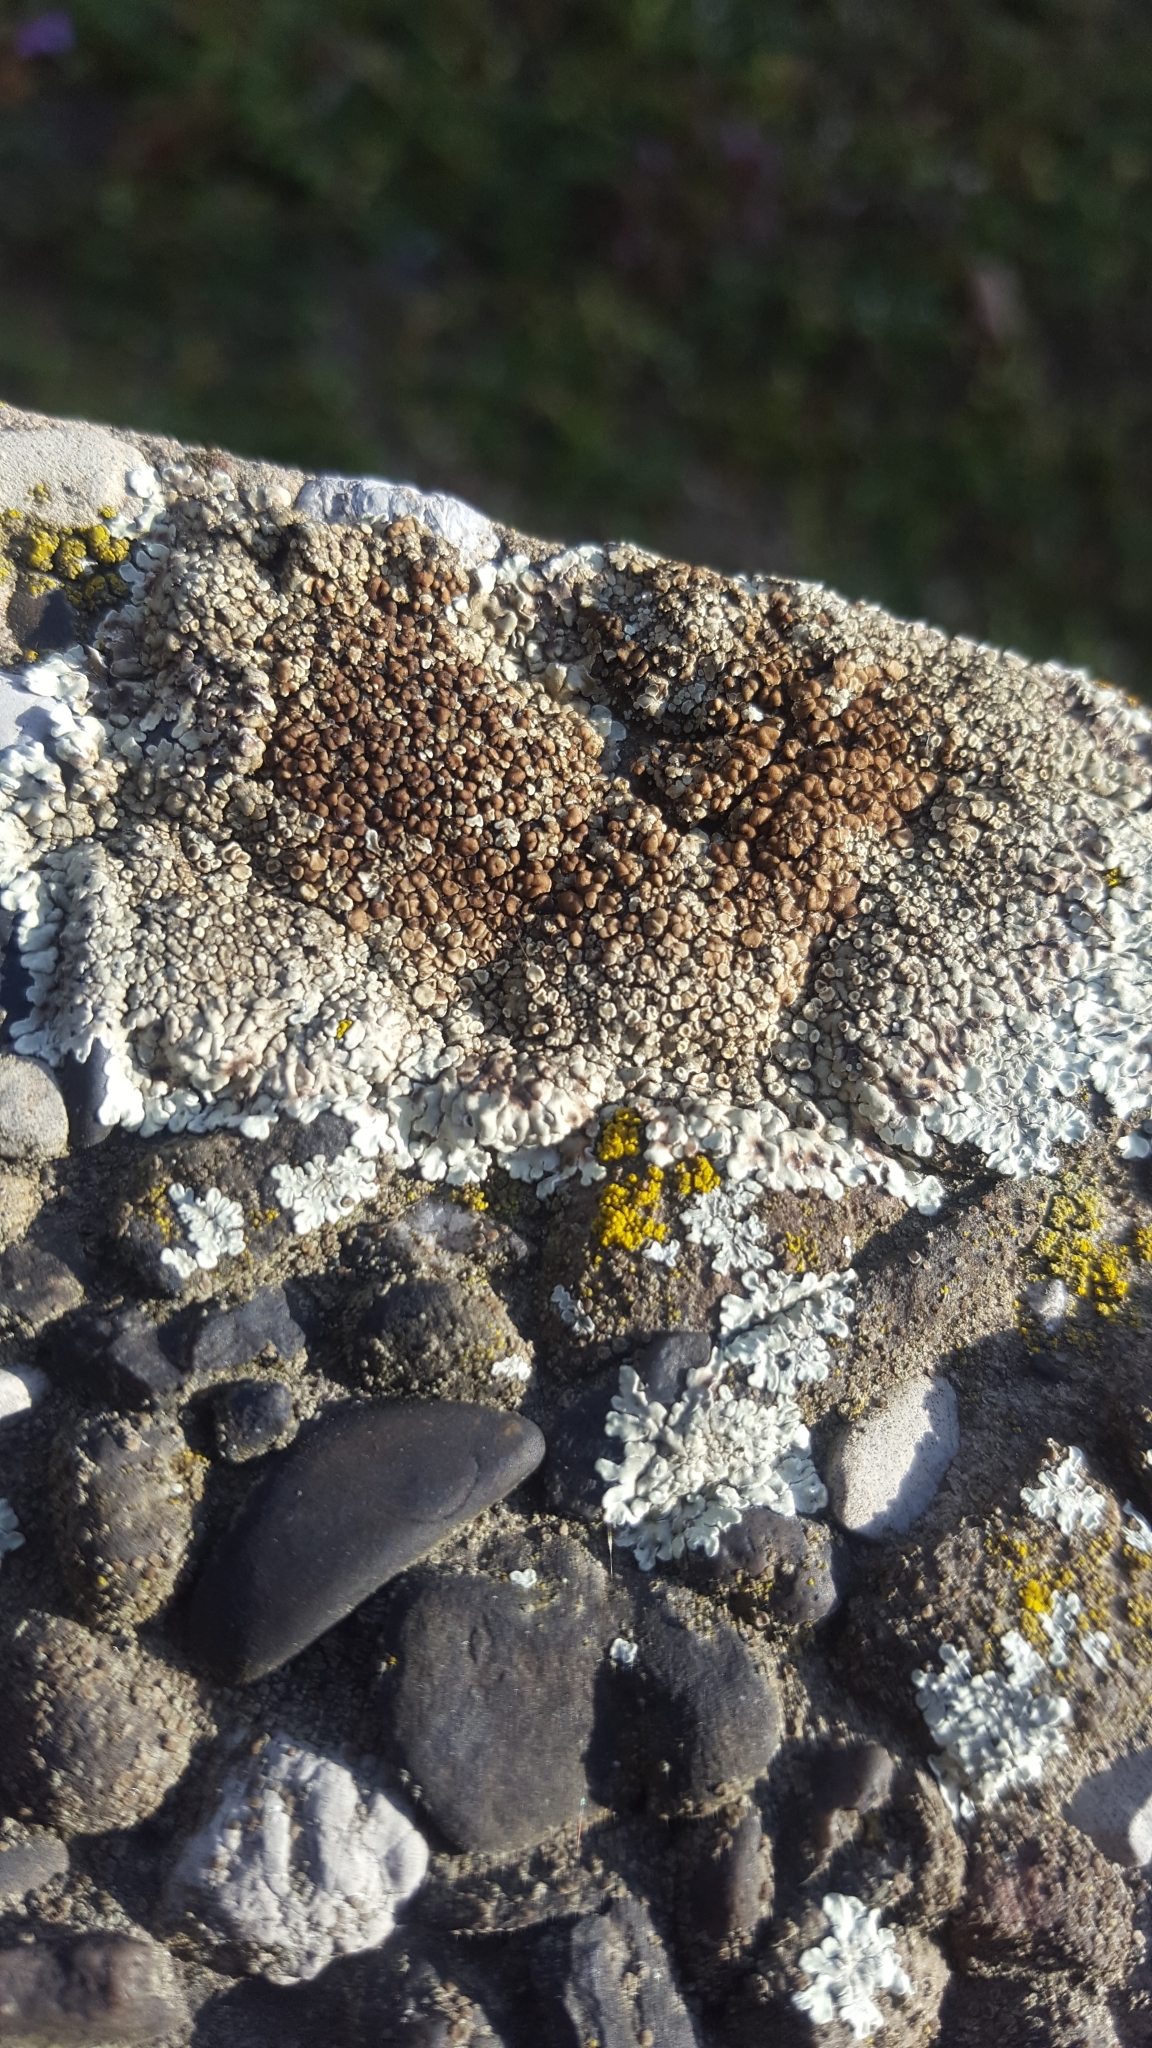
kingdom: Fungi
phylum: Ascomycota
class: Lecanoromycetes
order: Lecanorales
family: Lecanoraceae
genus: Protoparmeliopsis
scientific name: Protoparmeliopsis muralis
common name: Stonewall rim lichen
